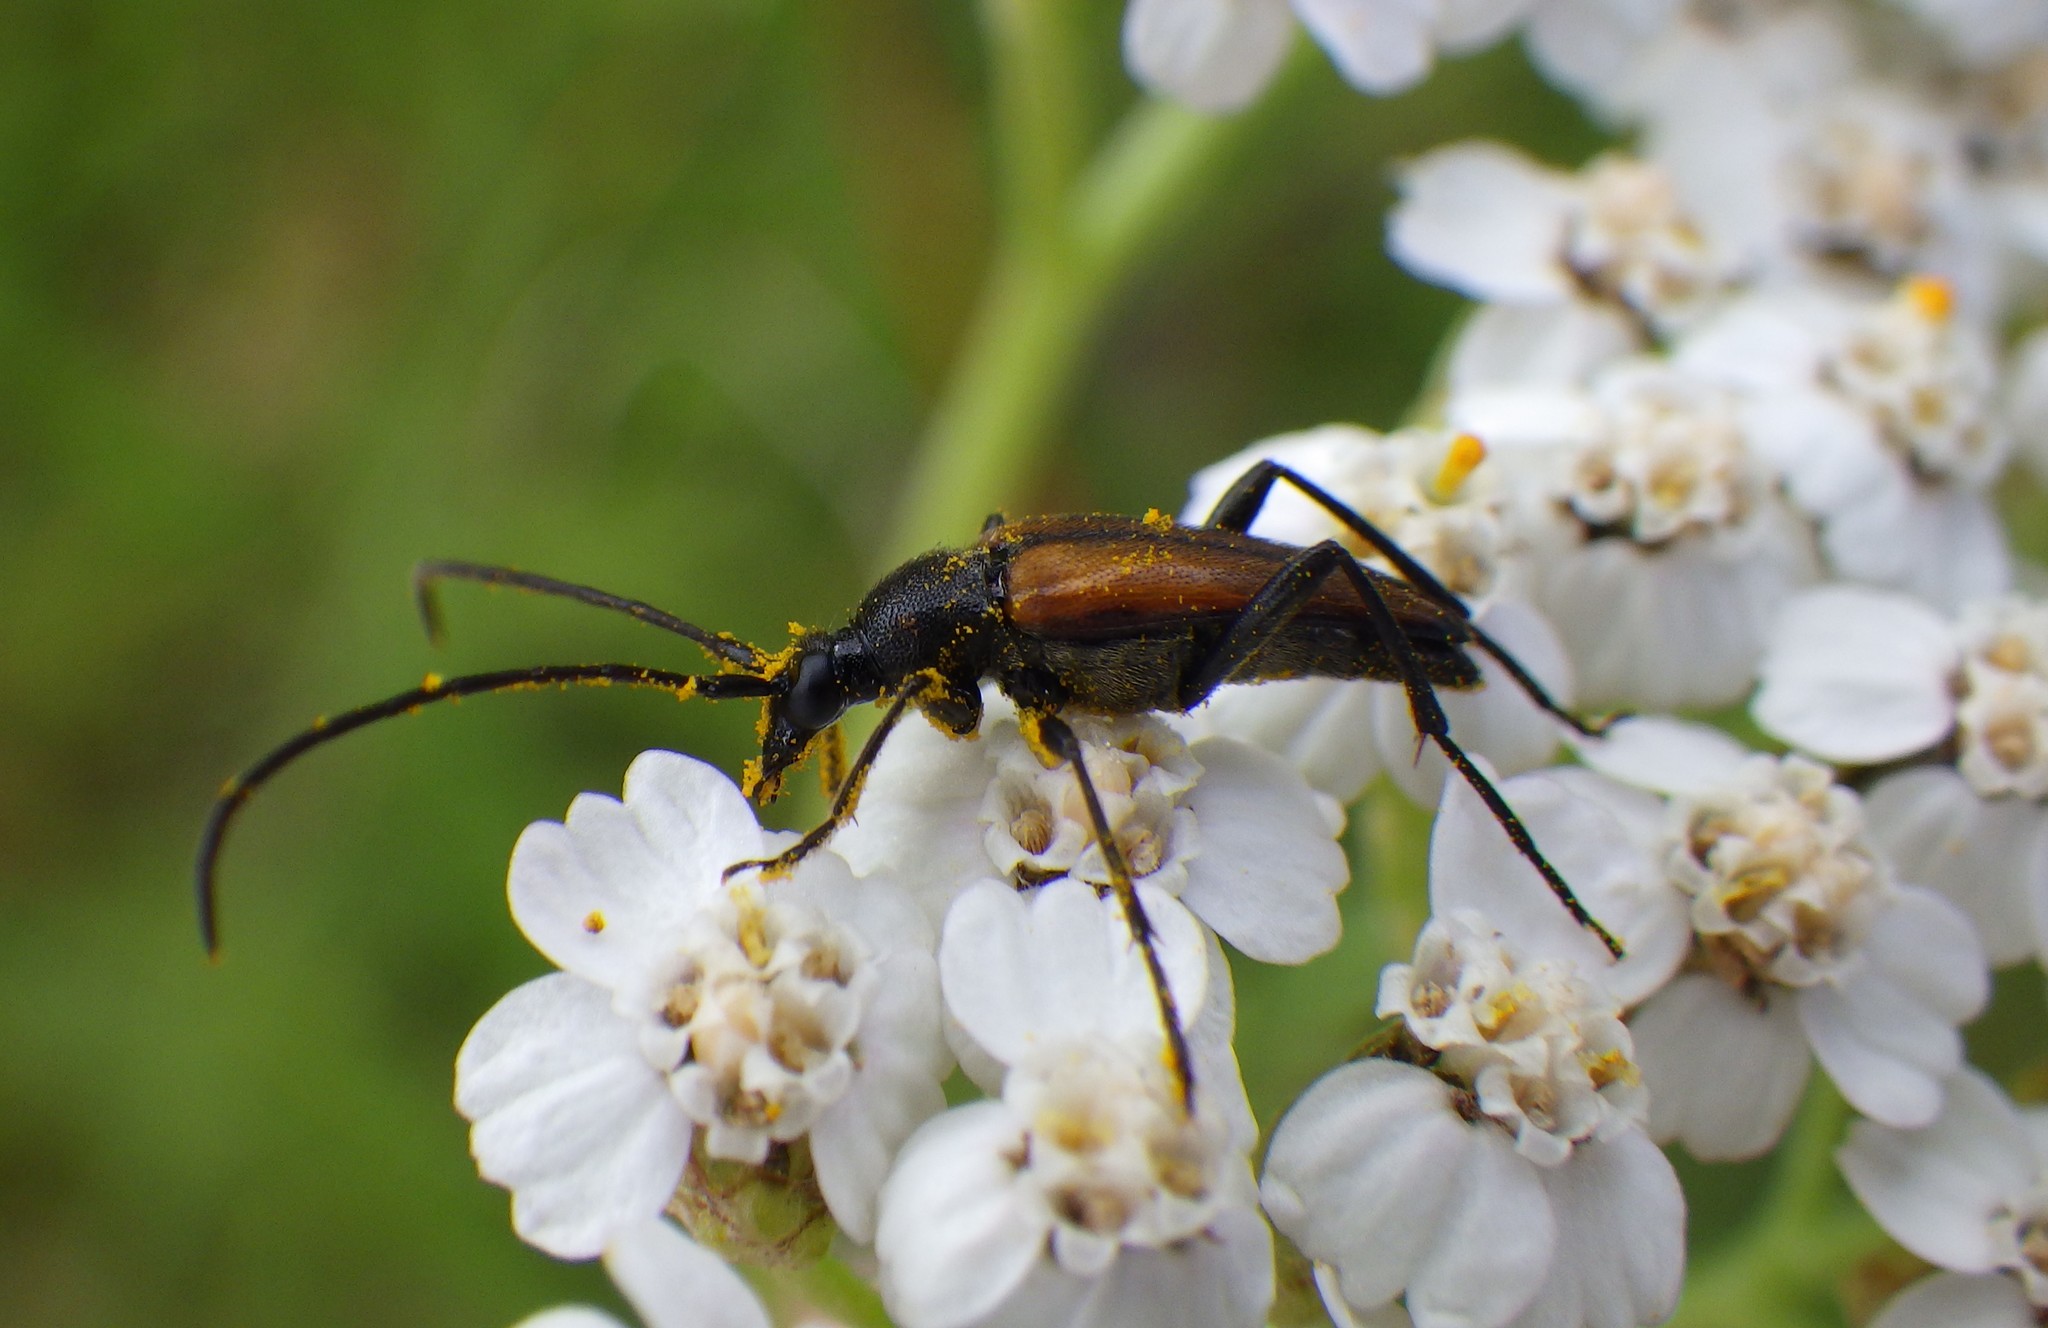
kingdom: Animalia
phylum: Arthropoda
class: Insecta
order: Coleoptera
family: Cerambycidae
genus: Stenurella
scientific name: Stenurella melanura
